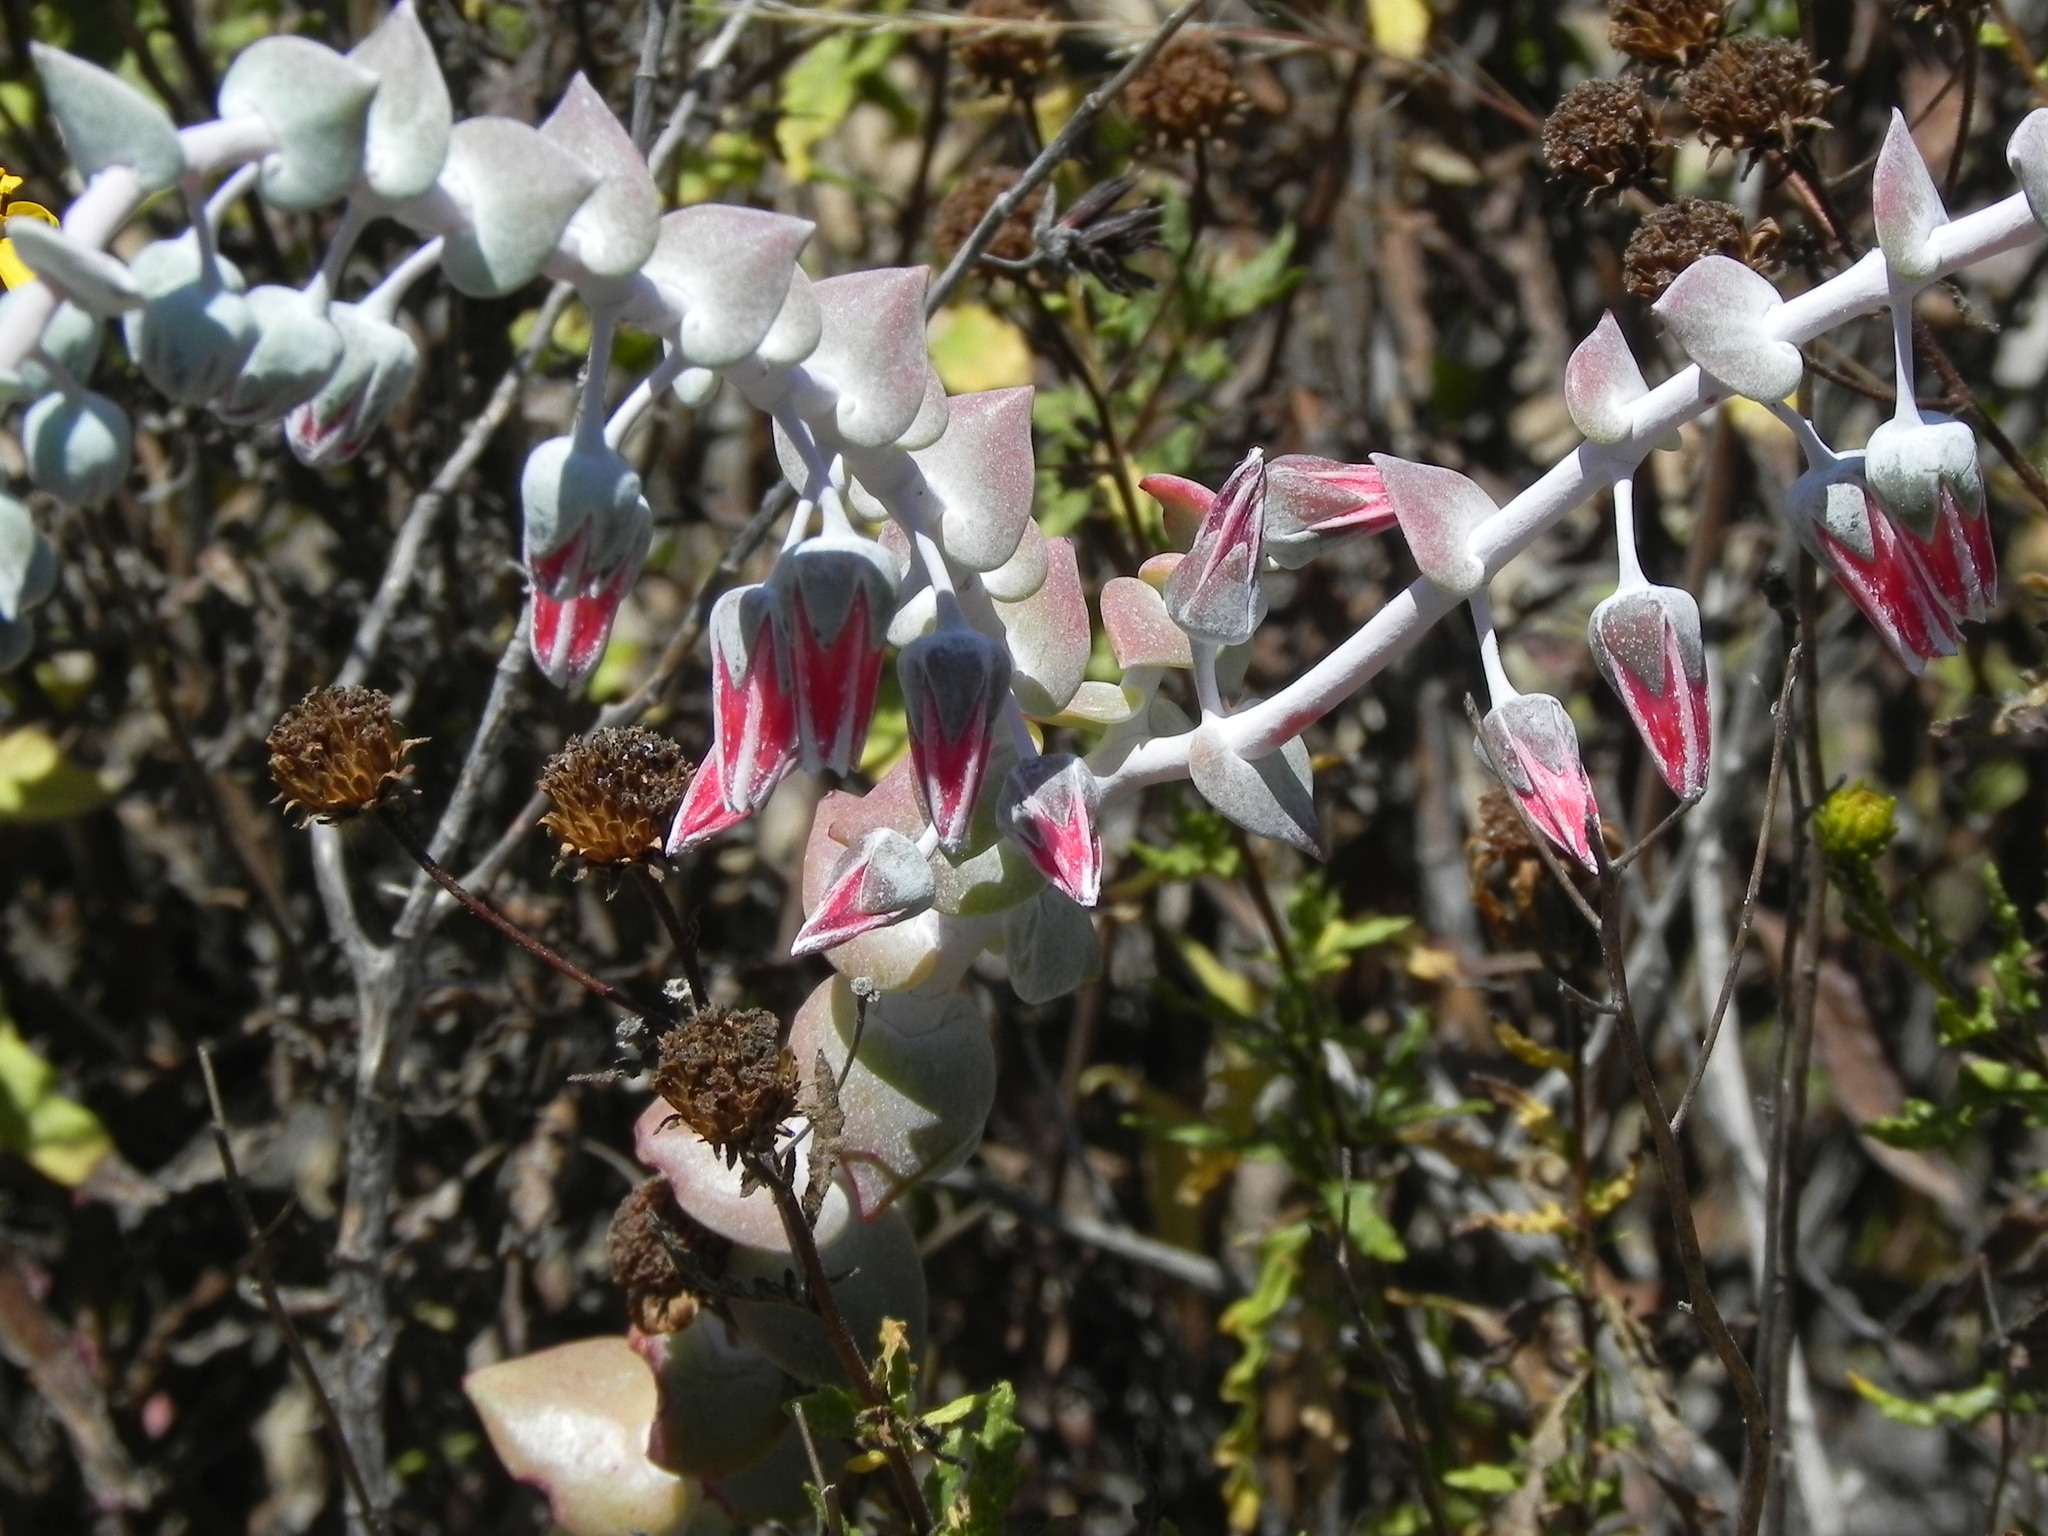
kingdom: Plantae
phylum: Tracheophyta
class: Magnoliopsida
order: Saxifragales
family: Crassulaceae
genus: Dudleya
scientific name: Dudleya pulverulenta
